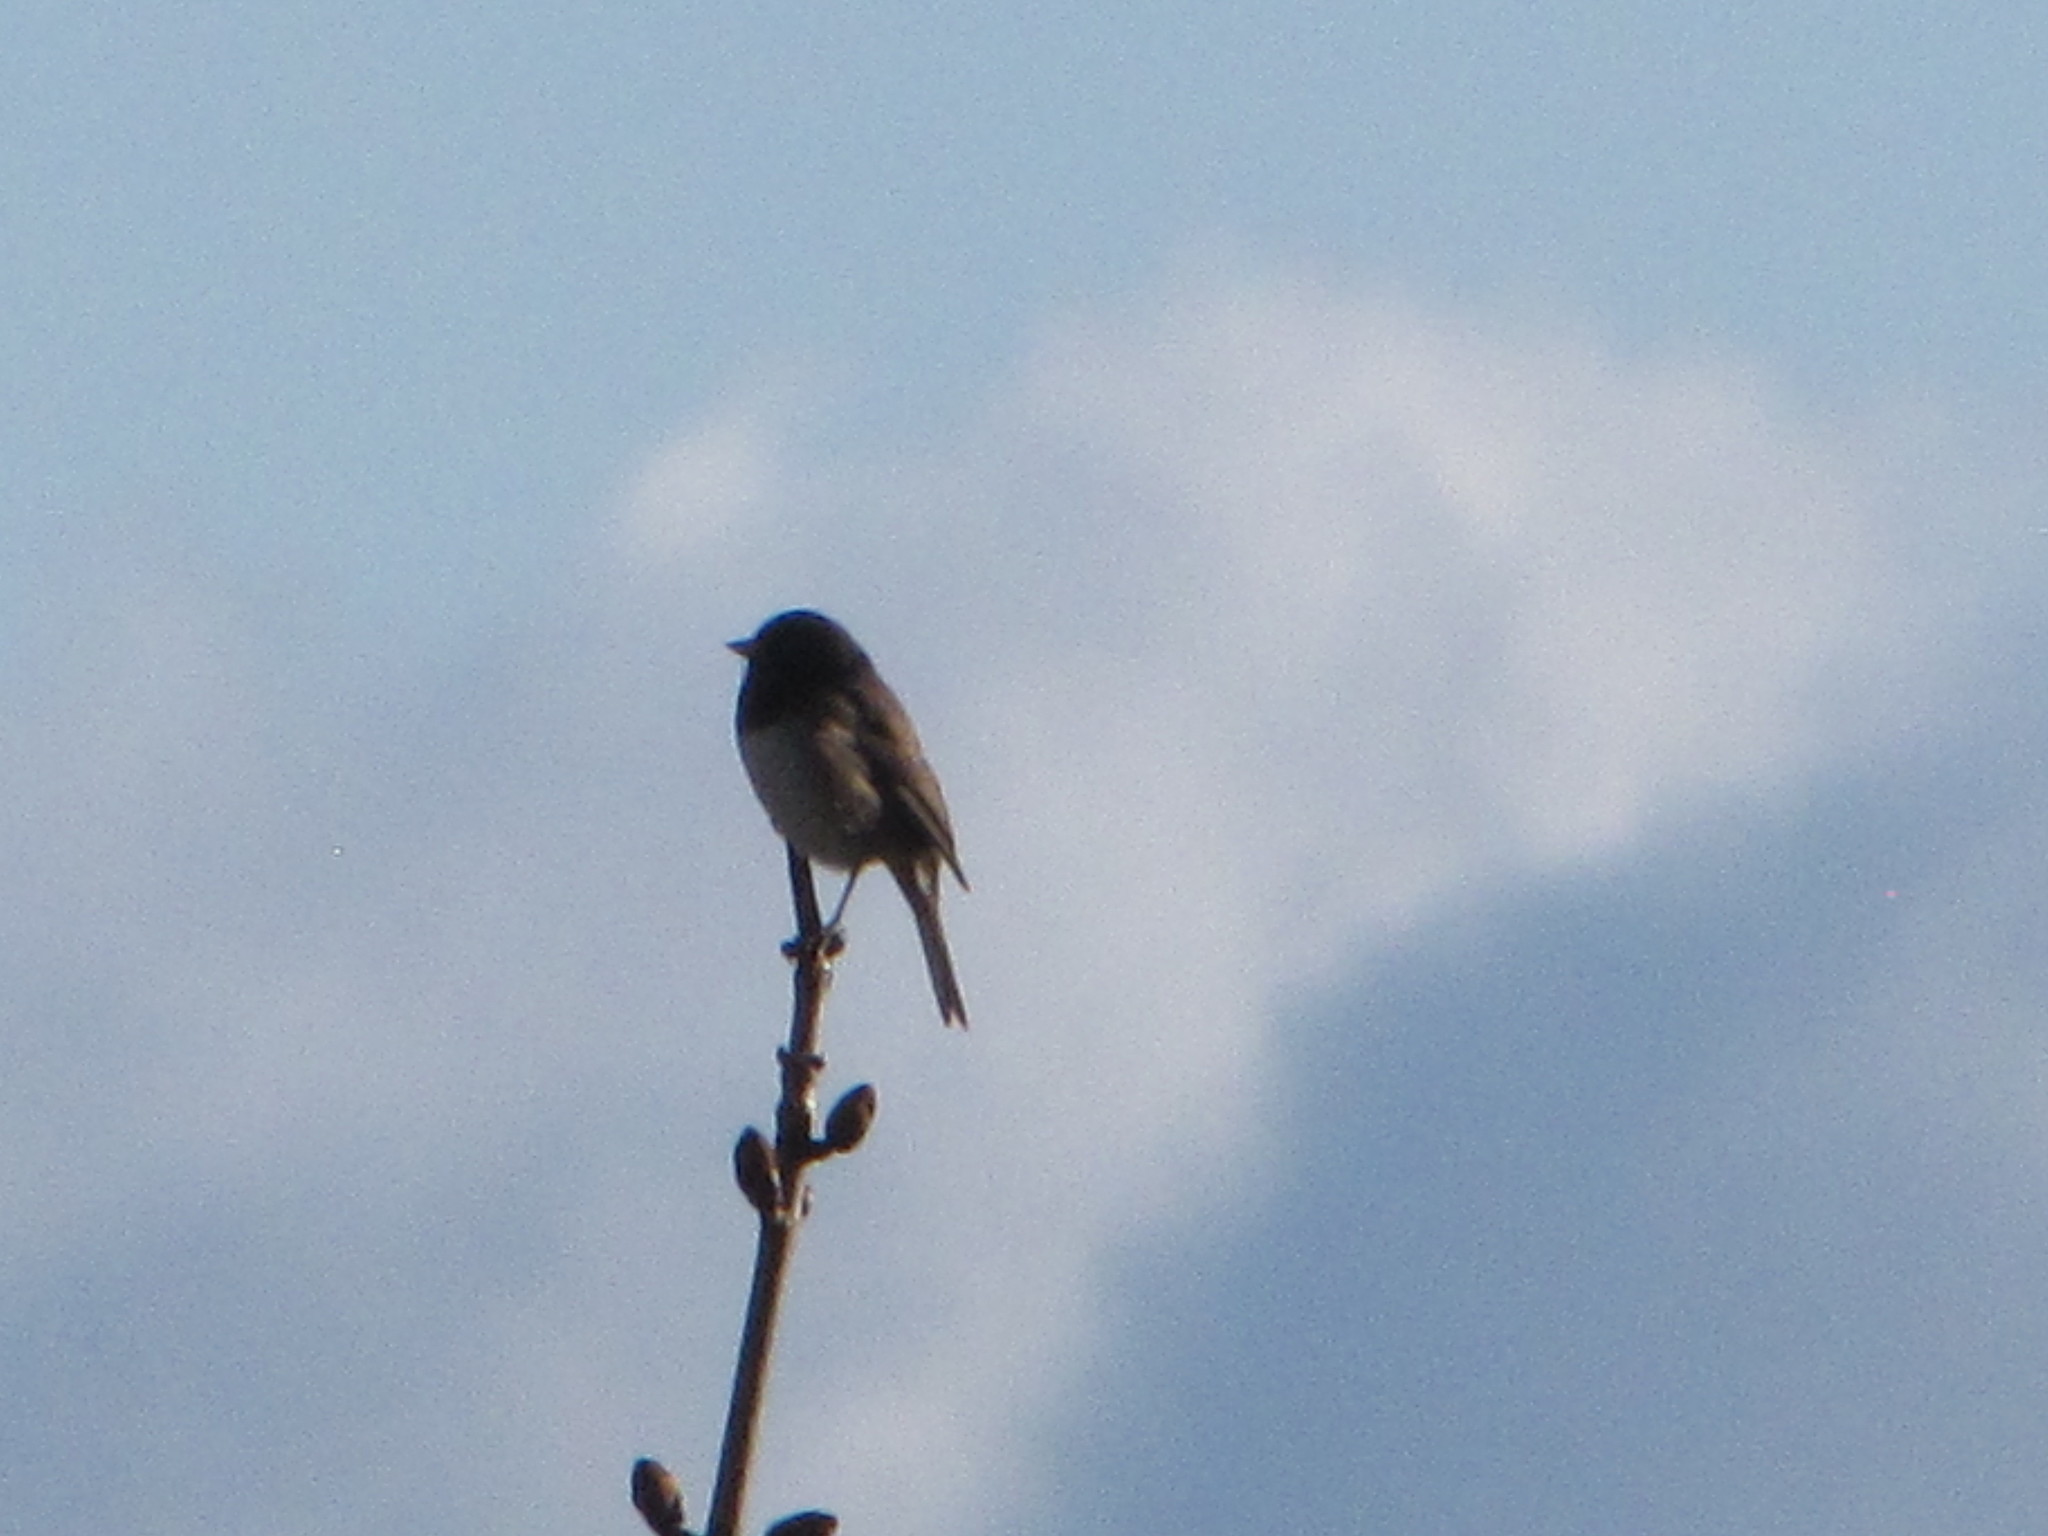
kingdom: Animalia
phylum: Chordata
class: Aves
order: Passeriformes
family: Passerellidae
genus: Junco
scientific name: Junco hyemalis
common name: Dark-eyed junco
